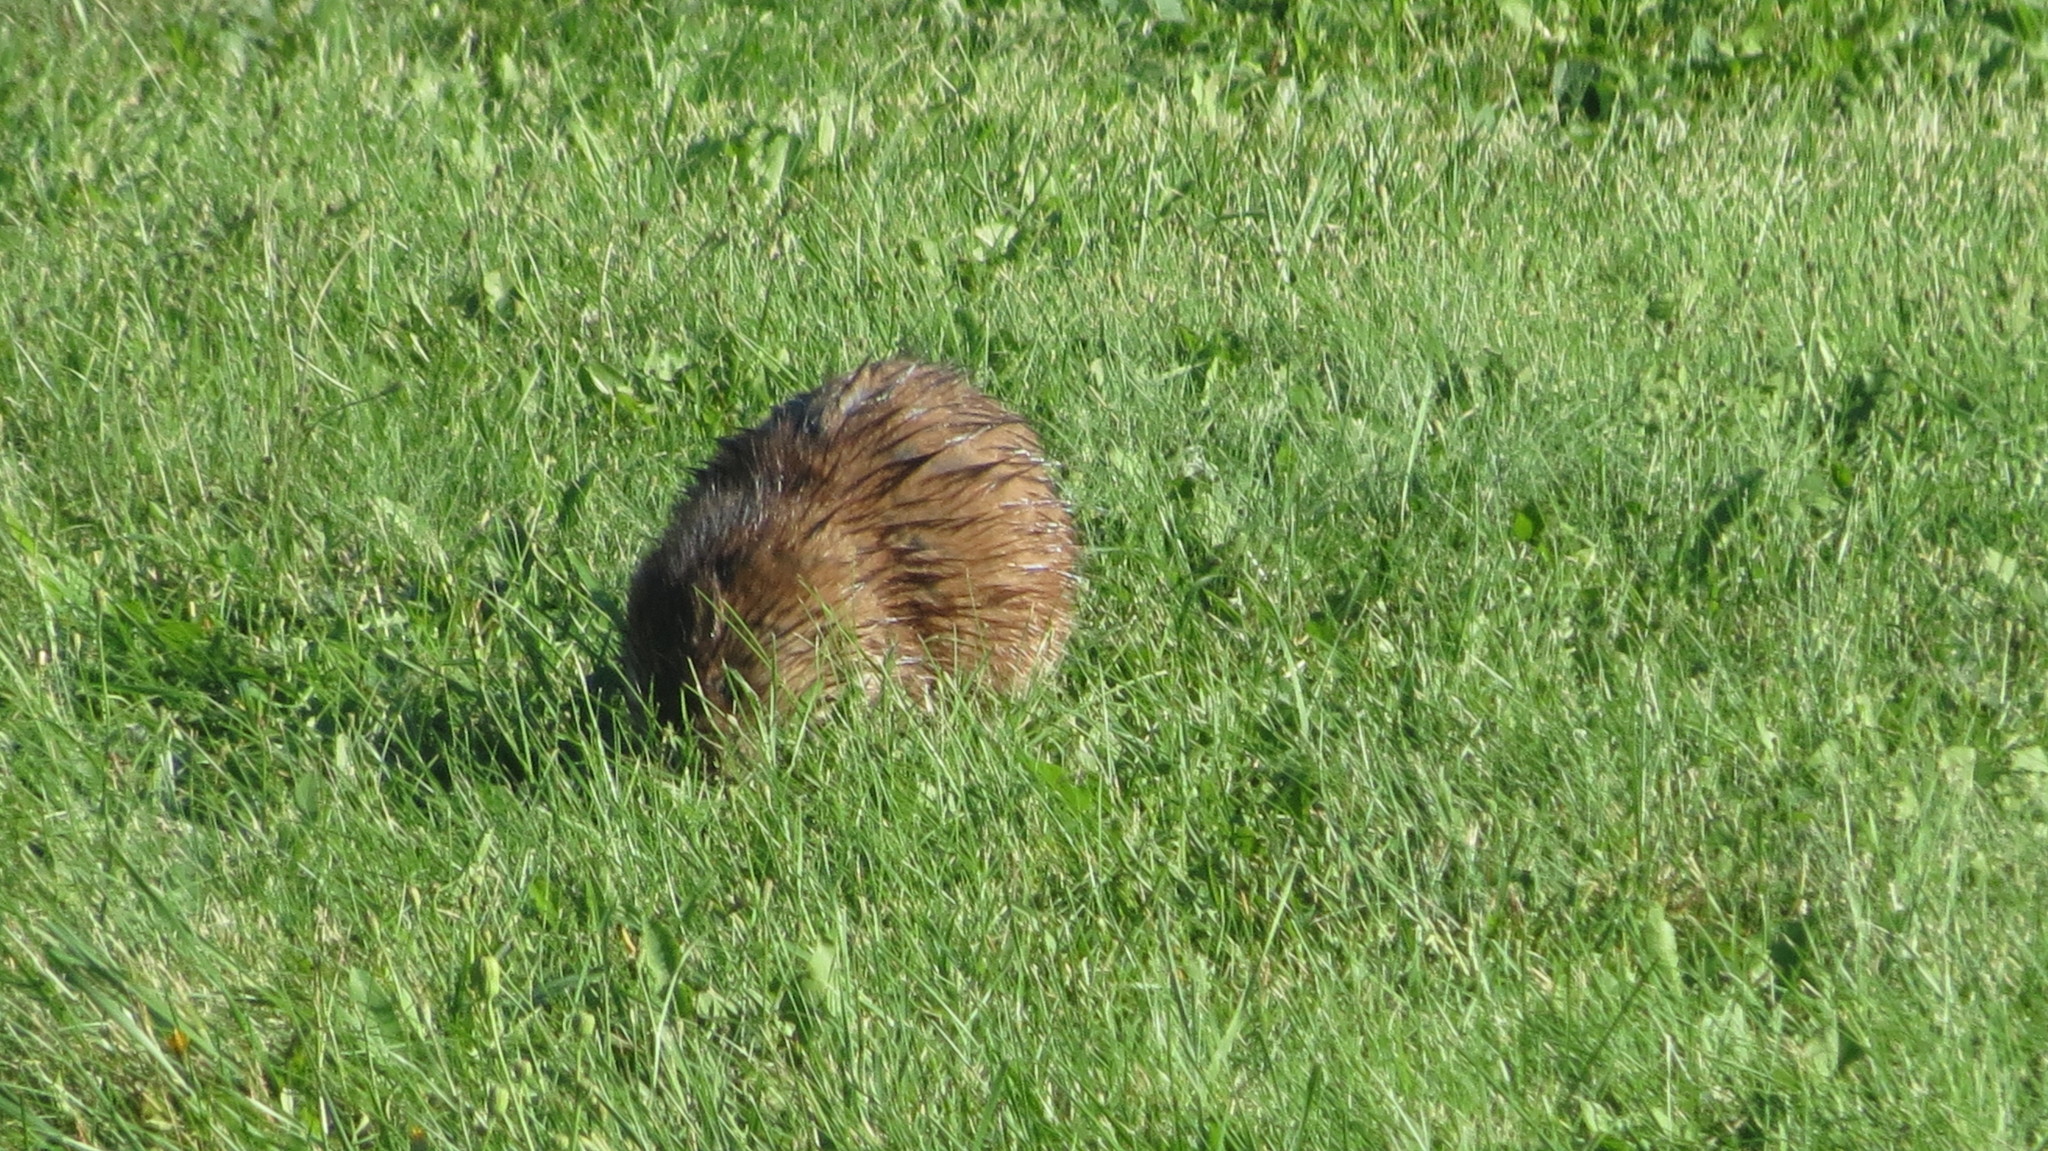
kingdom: Animalia
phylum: Chordata
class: Mammalia
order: Rodentia
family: Cricetidae
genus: Ondatra
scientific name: Ondatra zibethicus
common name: Muskrat
